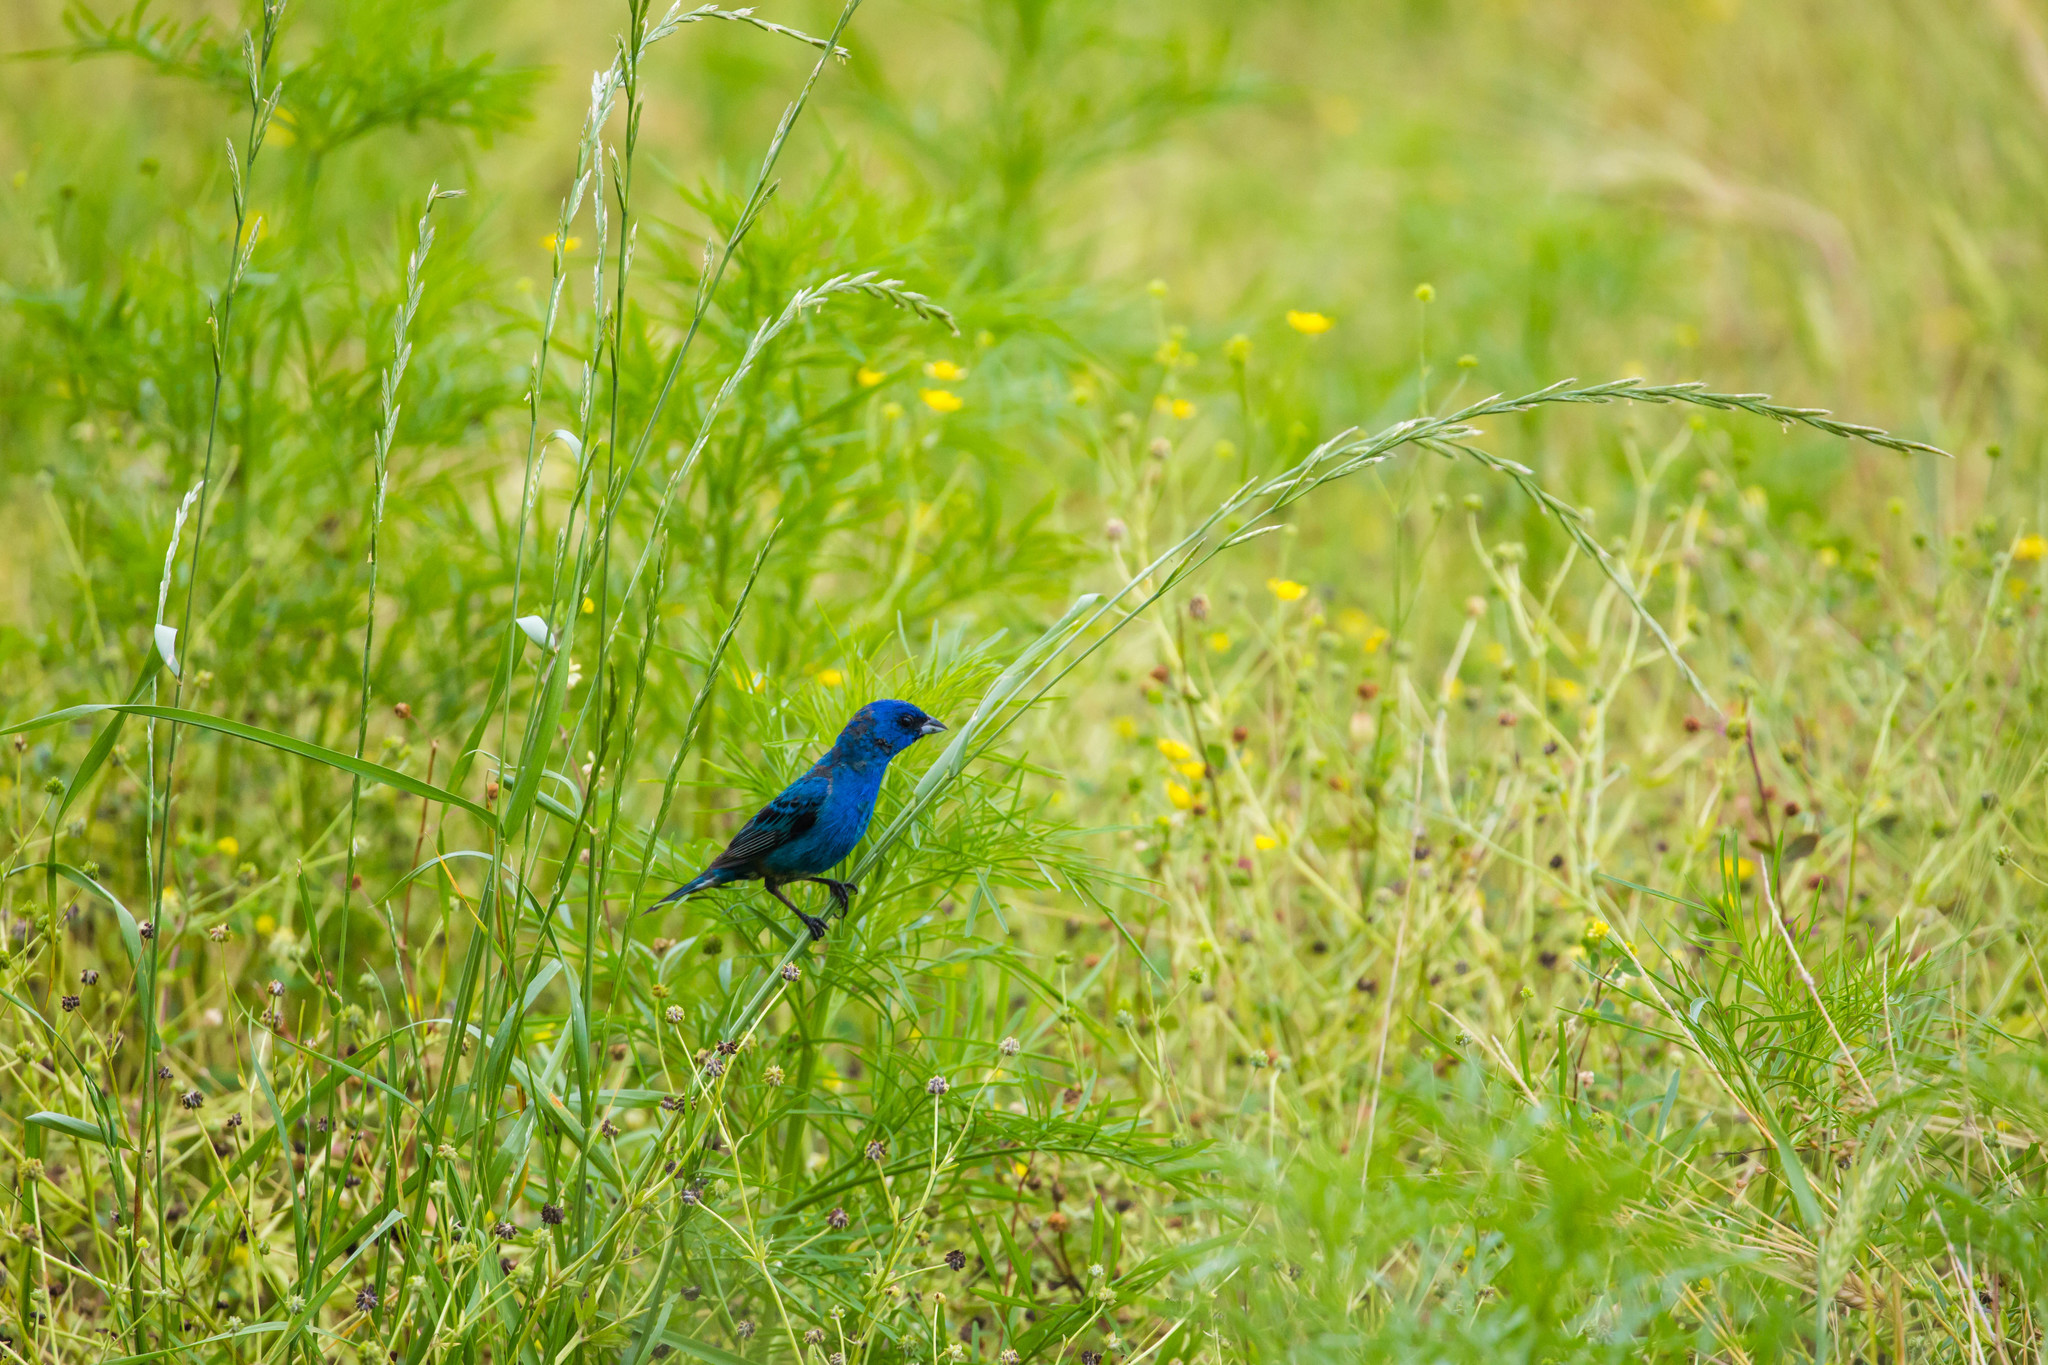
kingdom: Animalia
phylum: Chordata
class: Aves
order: Passeriformes
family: Cardinalidae
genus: Passerina
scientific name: Passerina cyanea
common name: Indigo bunting
